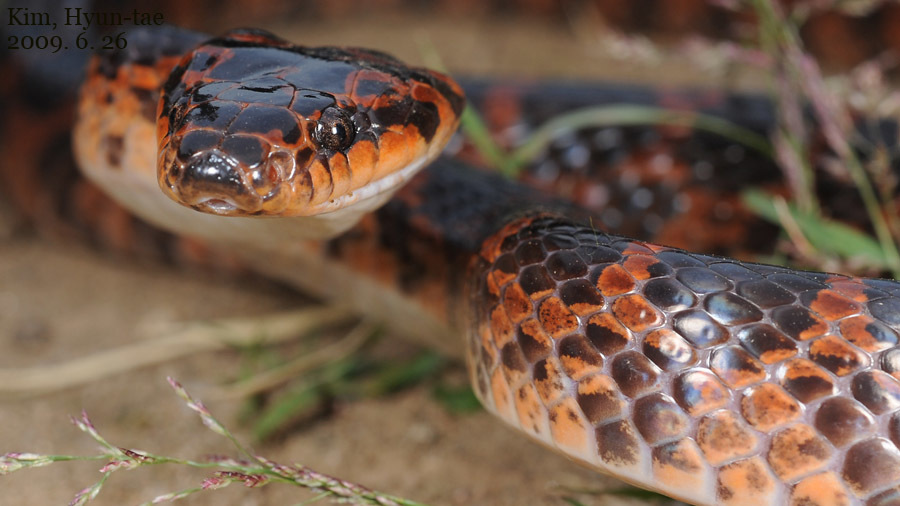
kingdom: Animalia
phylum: Chordata
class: Squamata
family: Colubridae
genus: Lycodon
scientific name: Lycodon rufozonatus
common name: Red-banded snake
